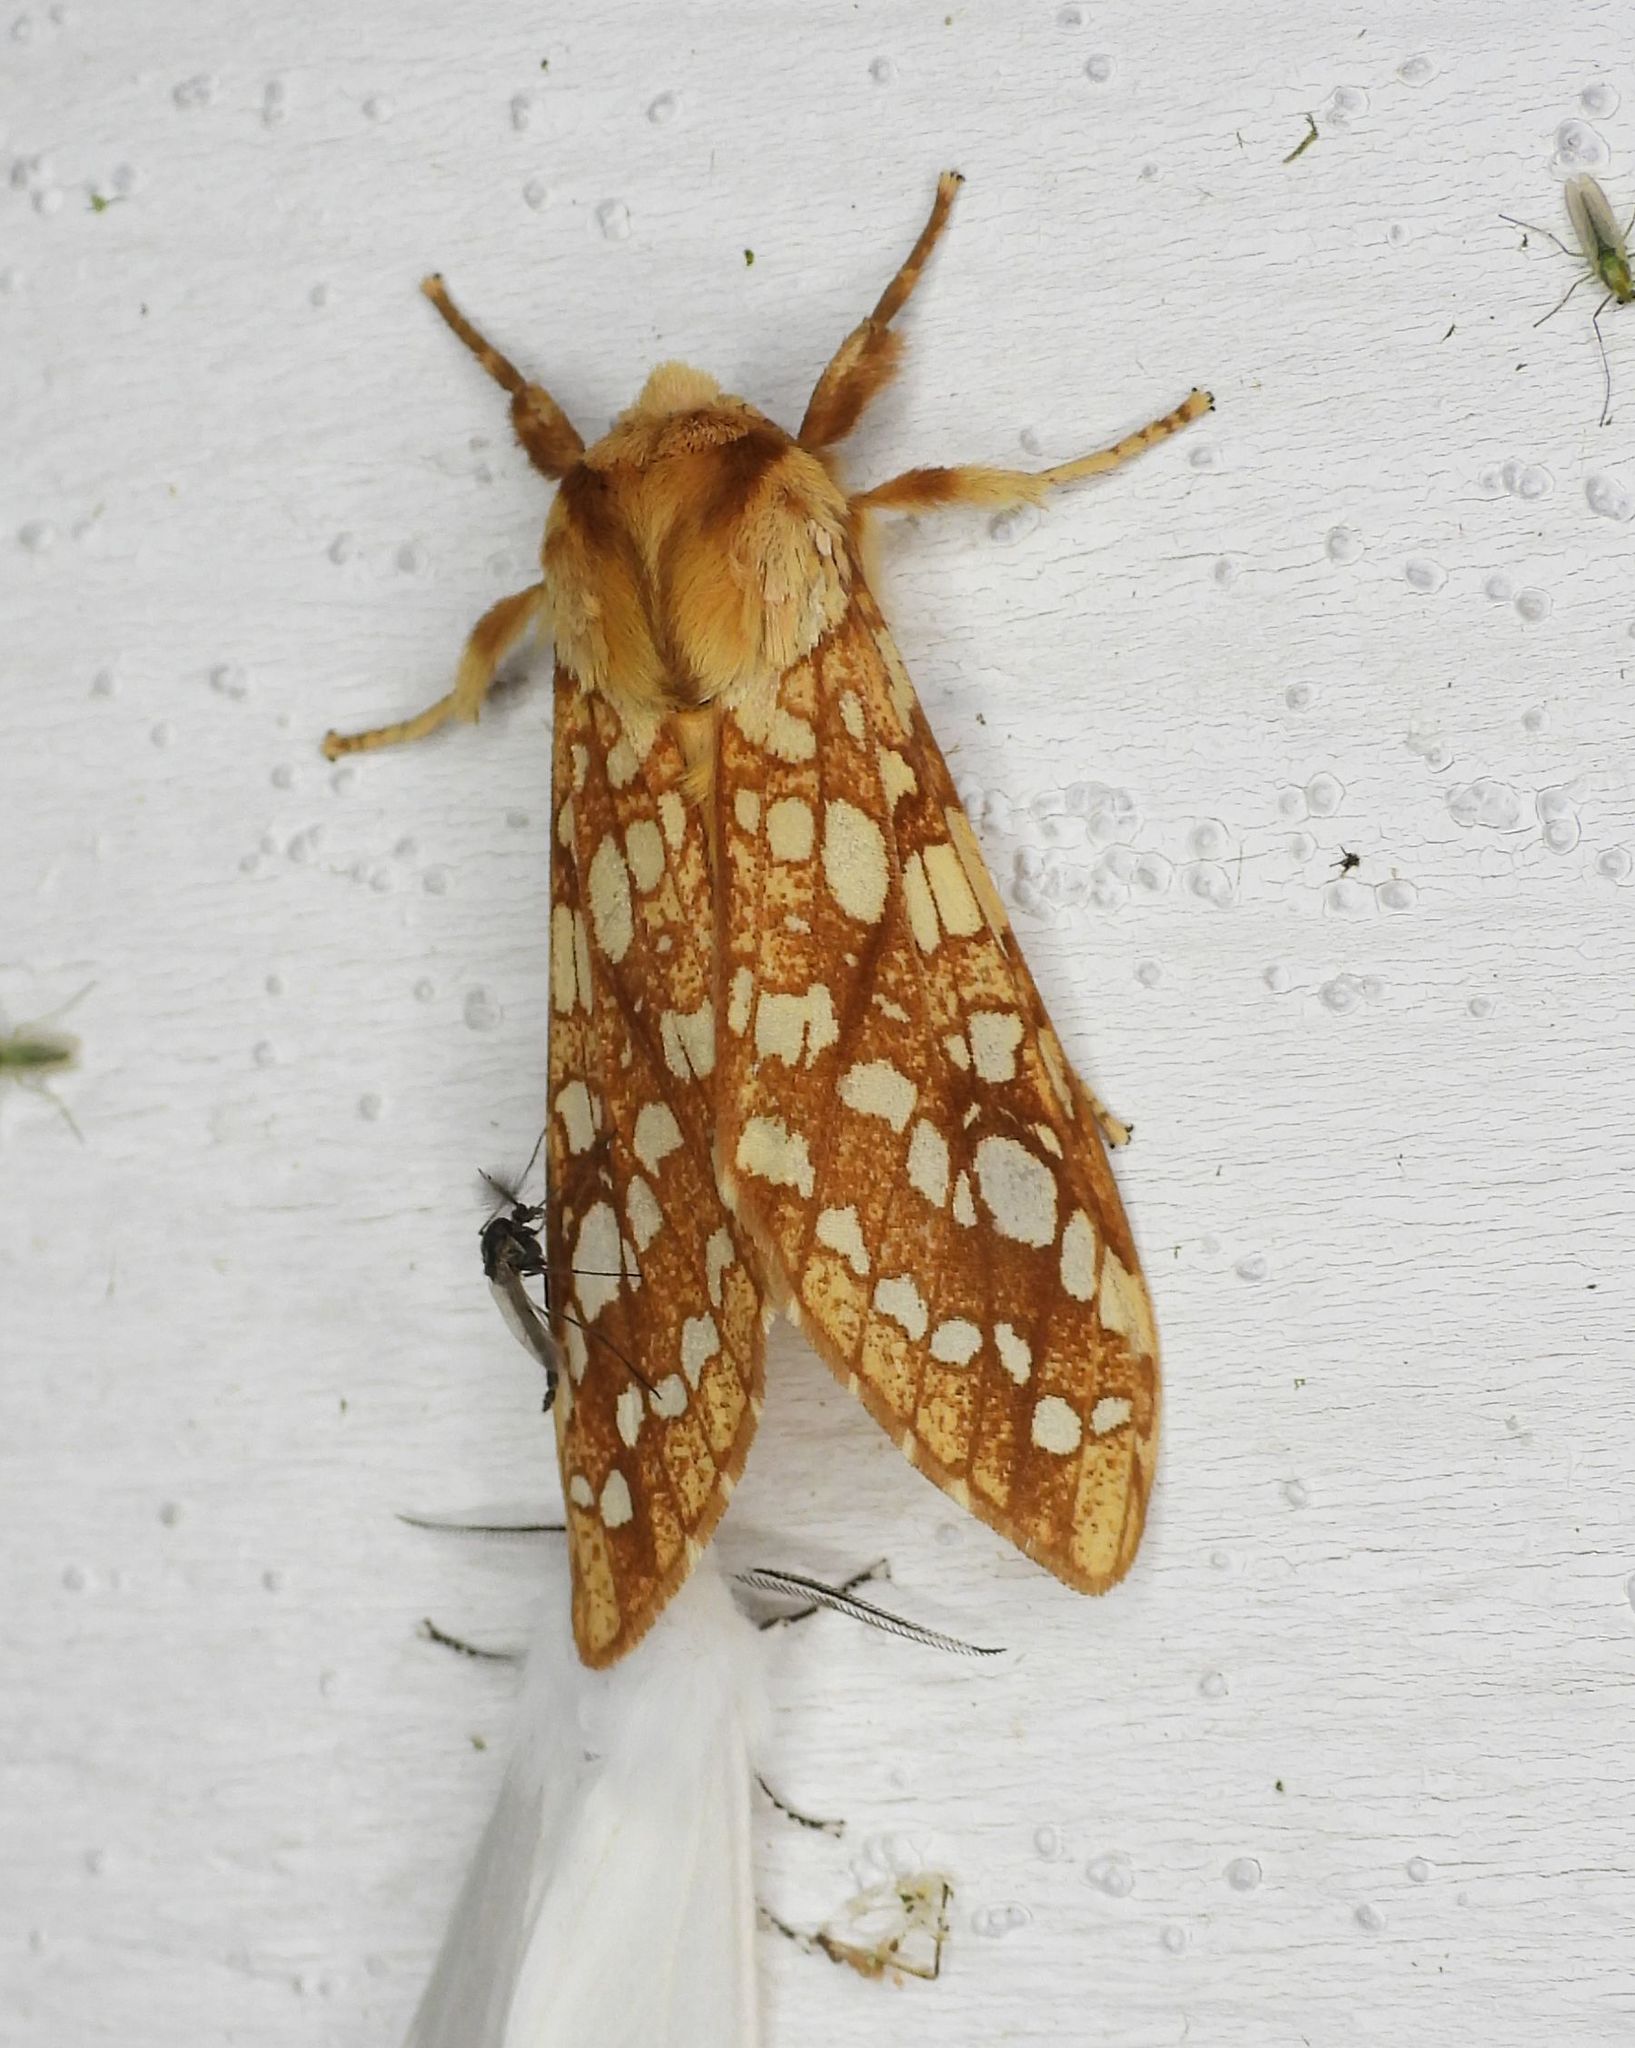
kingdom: Animalia
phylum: Arthropoda
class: Insecta
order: Lepidoptera
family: Erebidae
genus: Lophocampa
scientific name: Lophocampa caryae
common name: Hickory tussock moth
